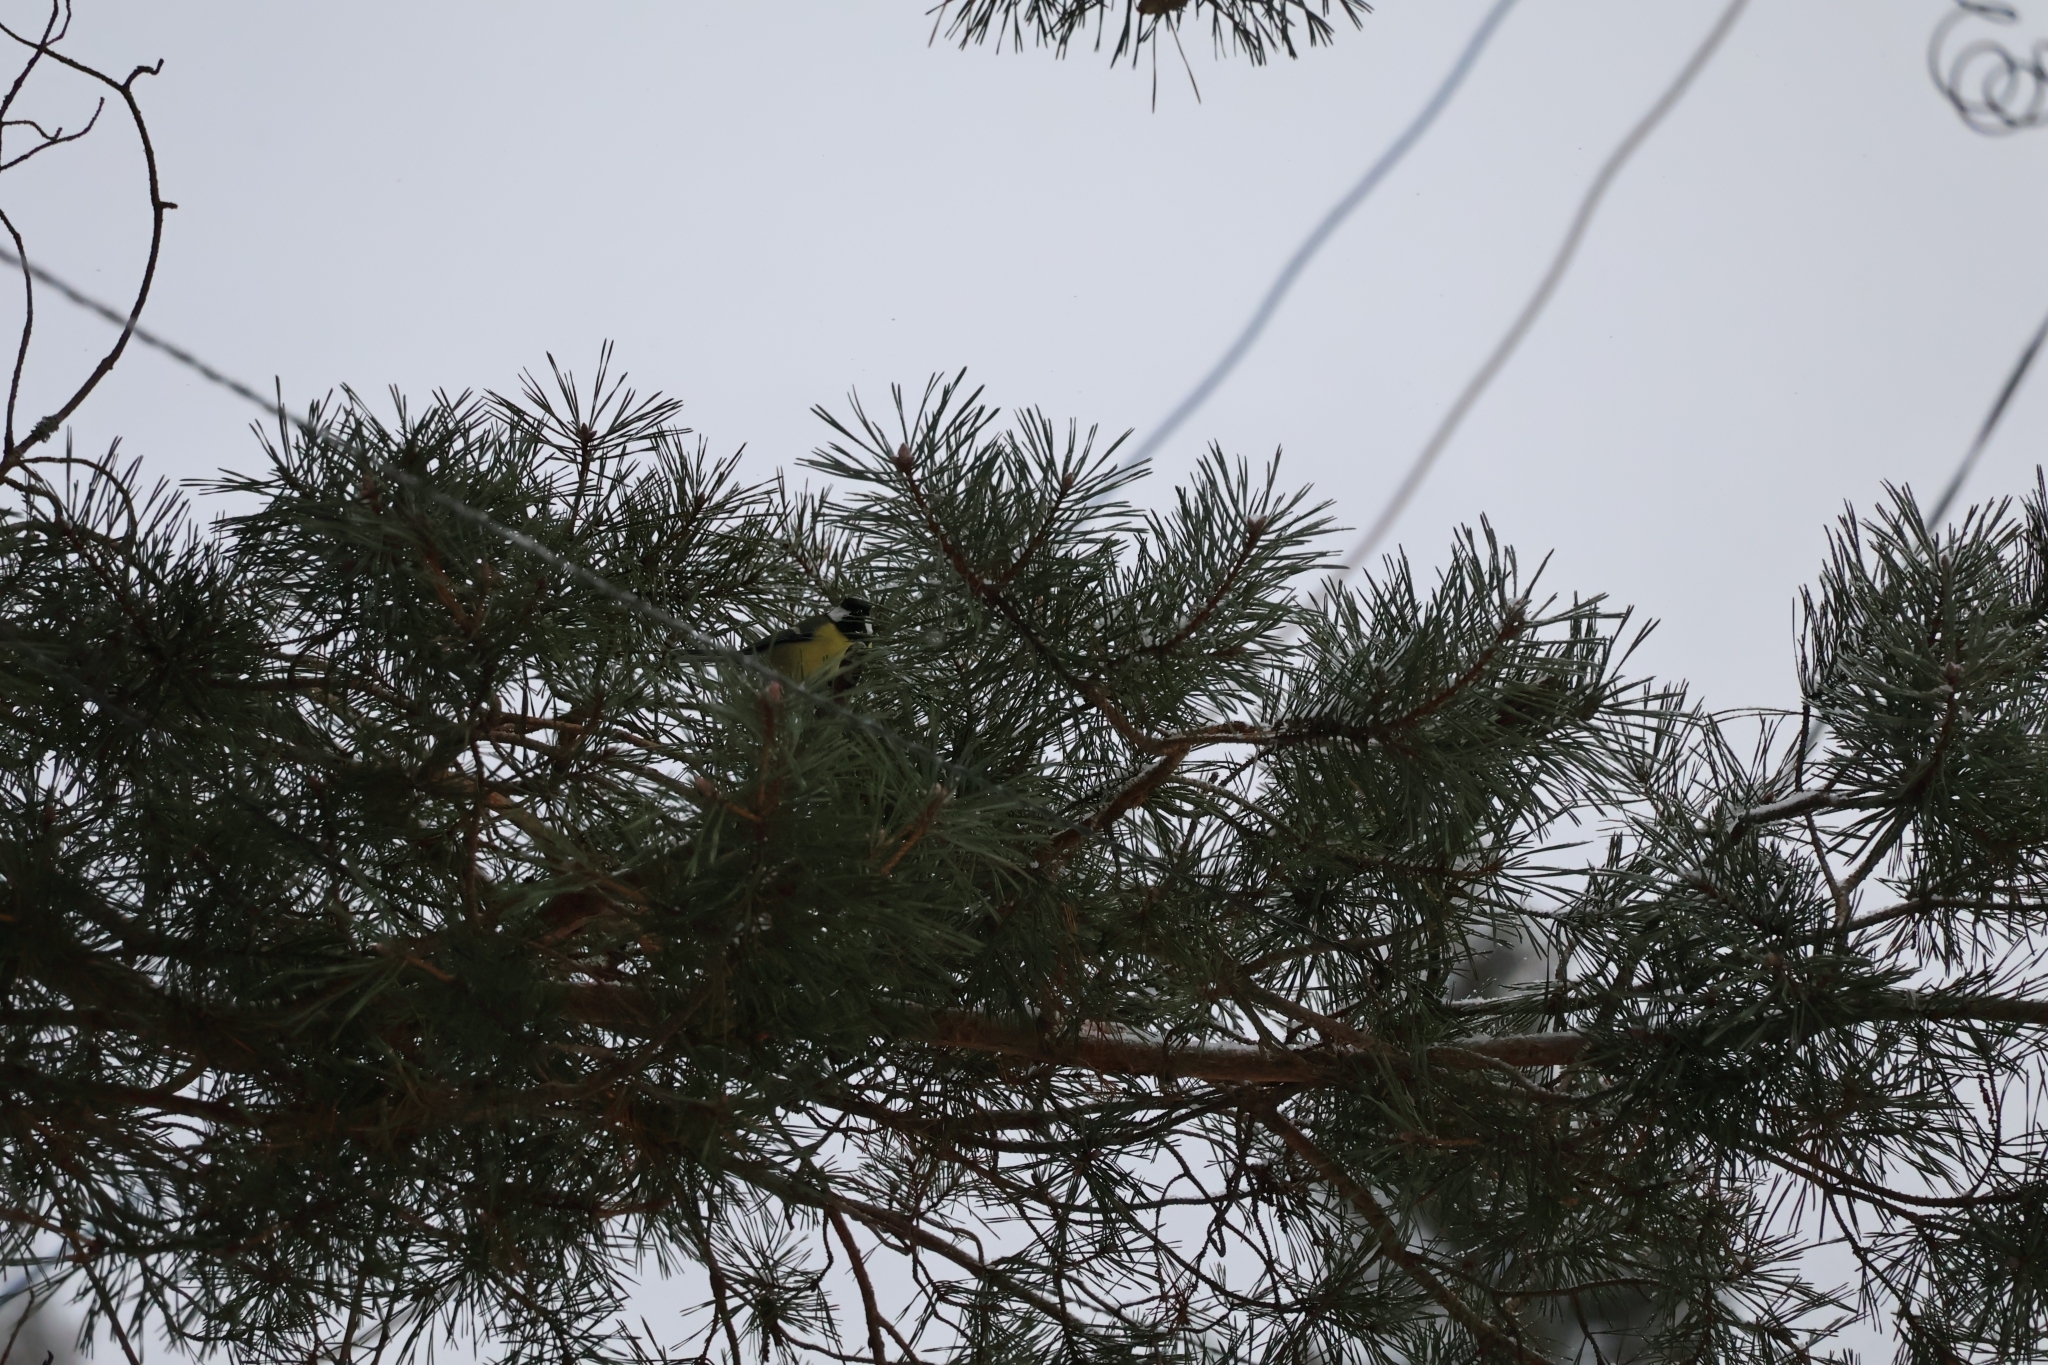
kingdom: Animalia
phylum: Chordata
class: Aves
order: Passeriformes
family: Paridae
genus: Parus
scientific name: Parus major
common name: Great tit
